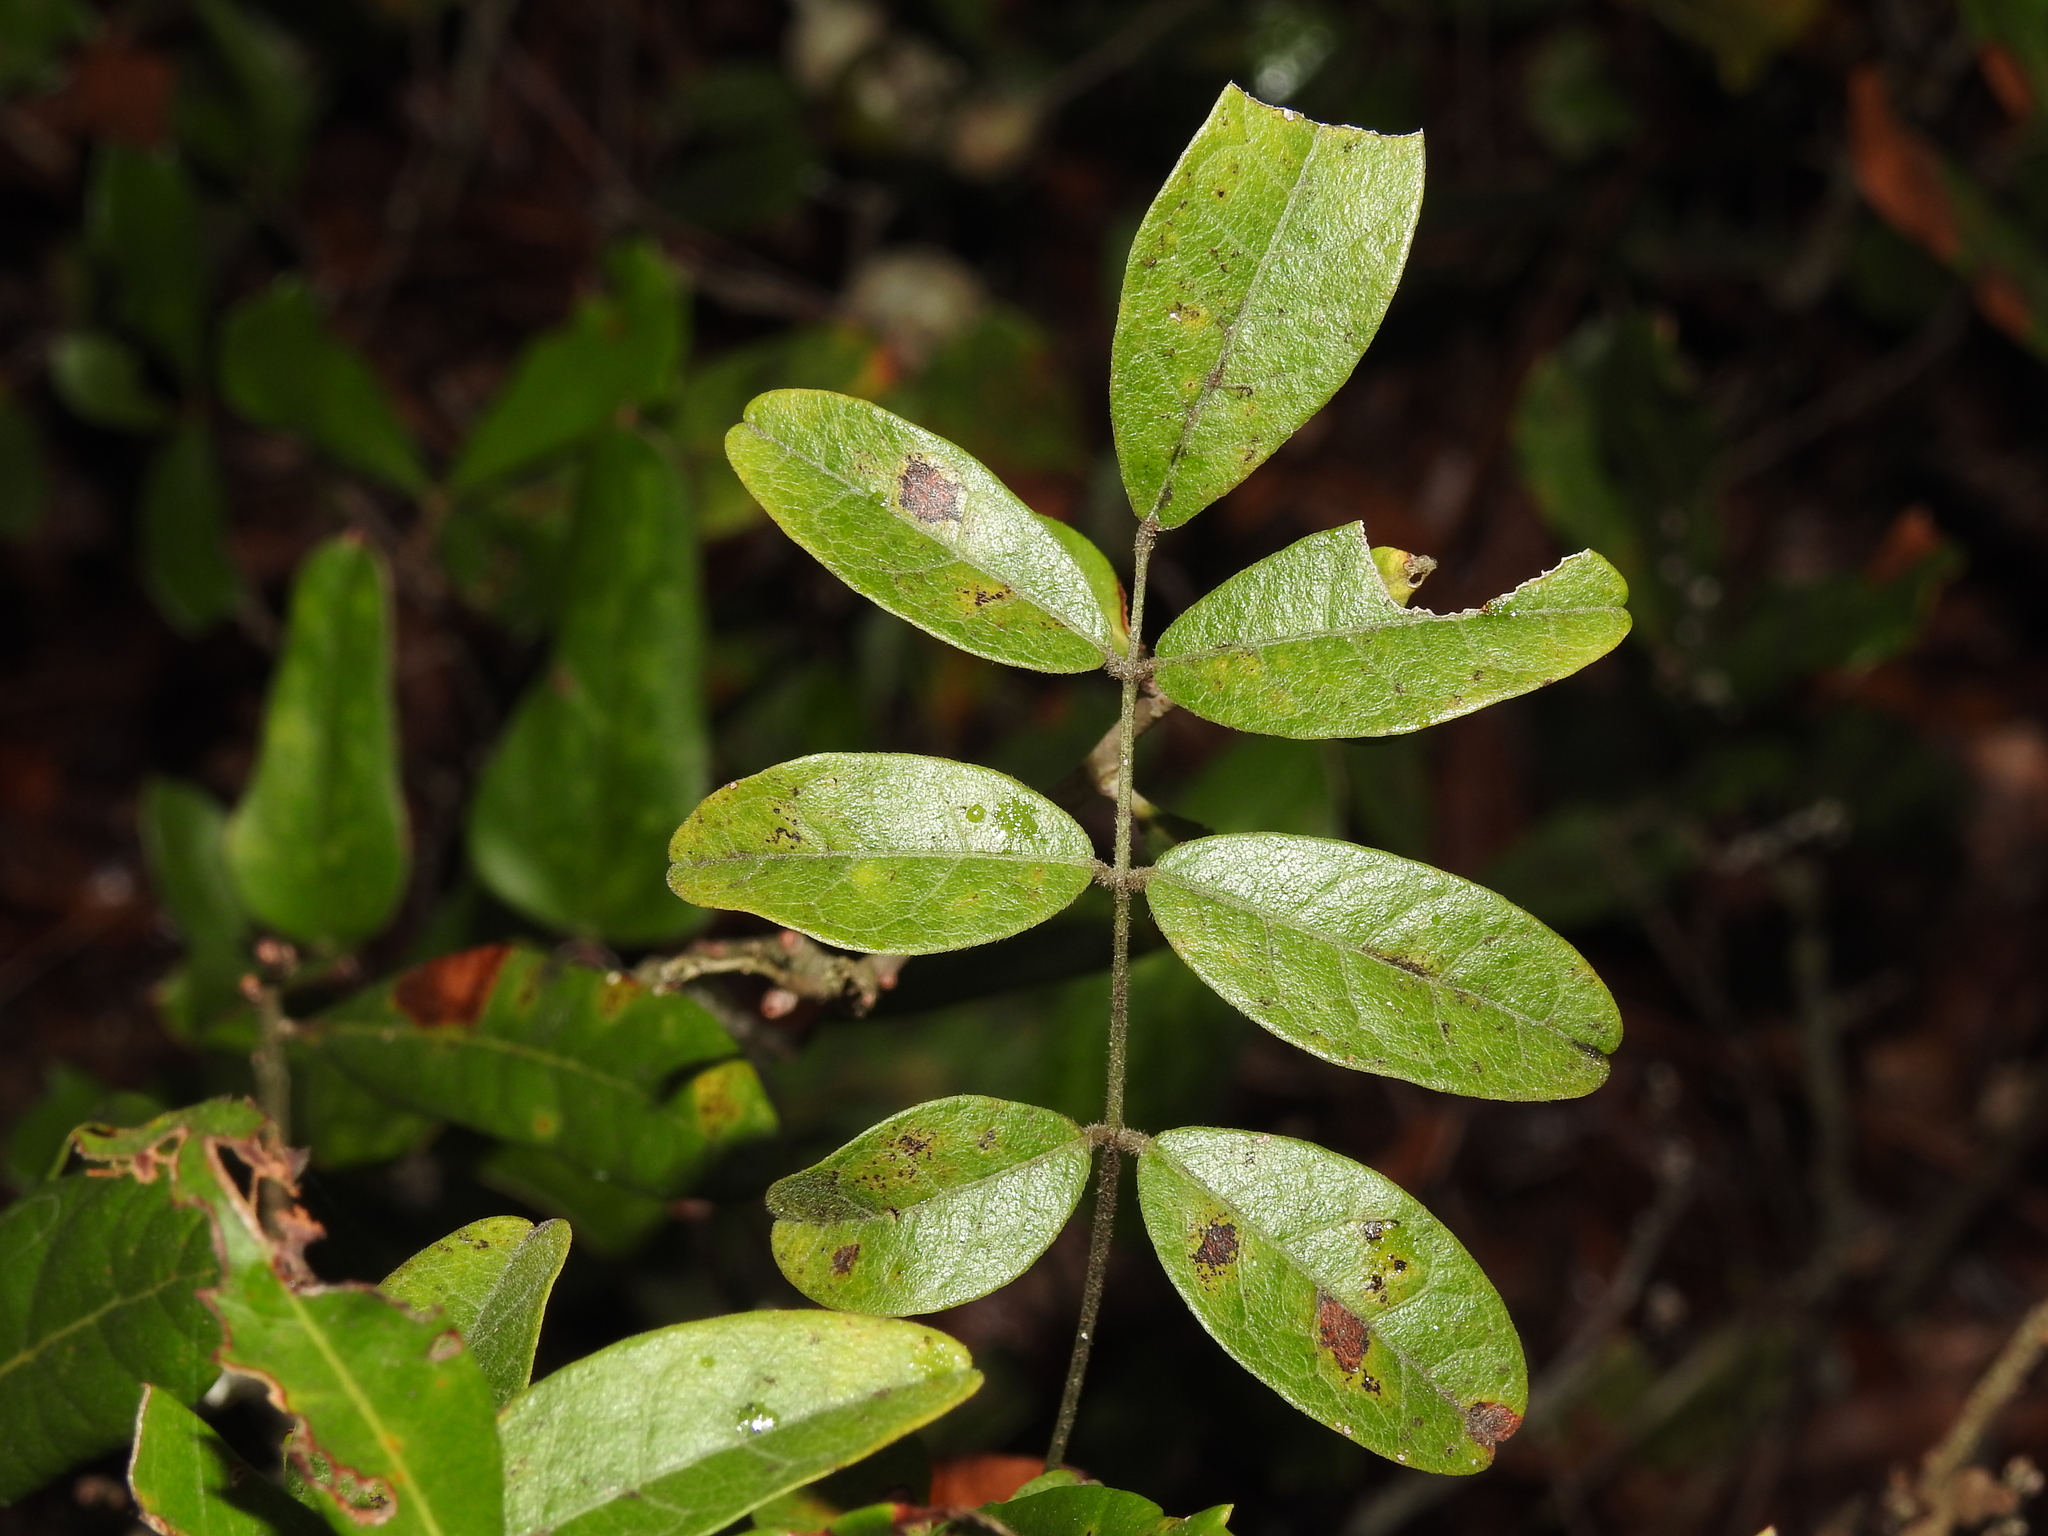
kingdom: Plantae
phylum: Tracheophyta
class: Magnoliopsida
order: Fabales
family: Fabaceae
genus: Galactia
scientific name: Galactia elliottii
